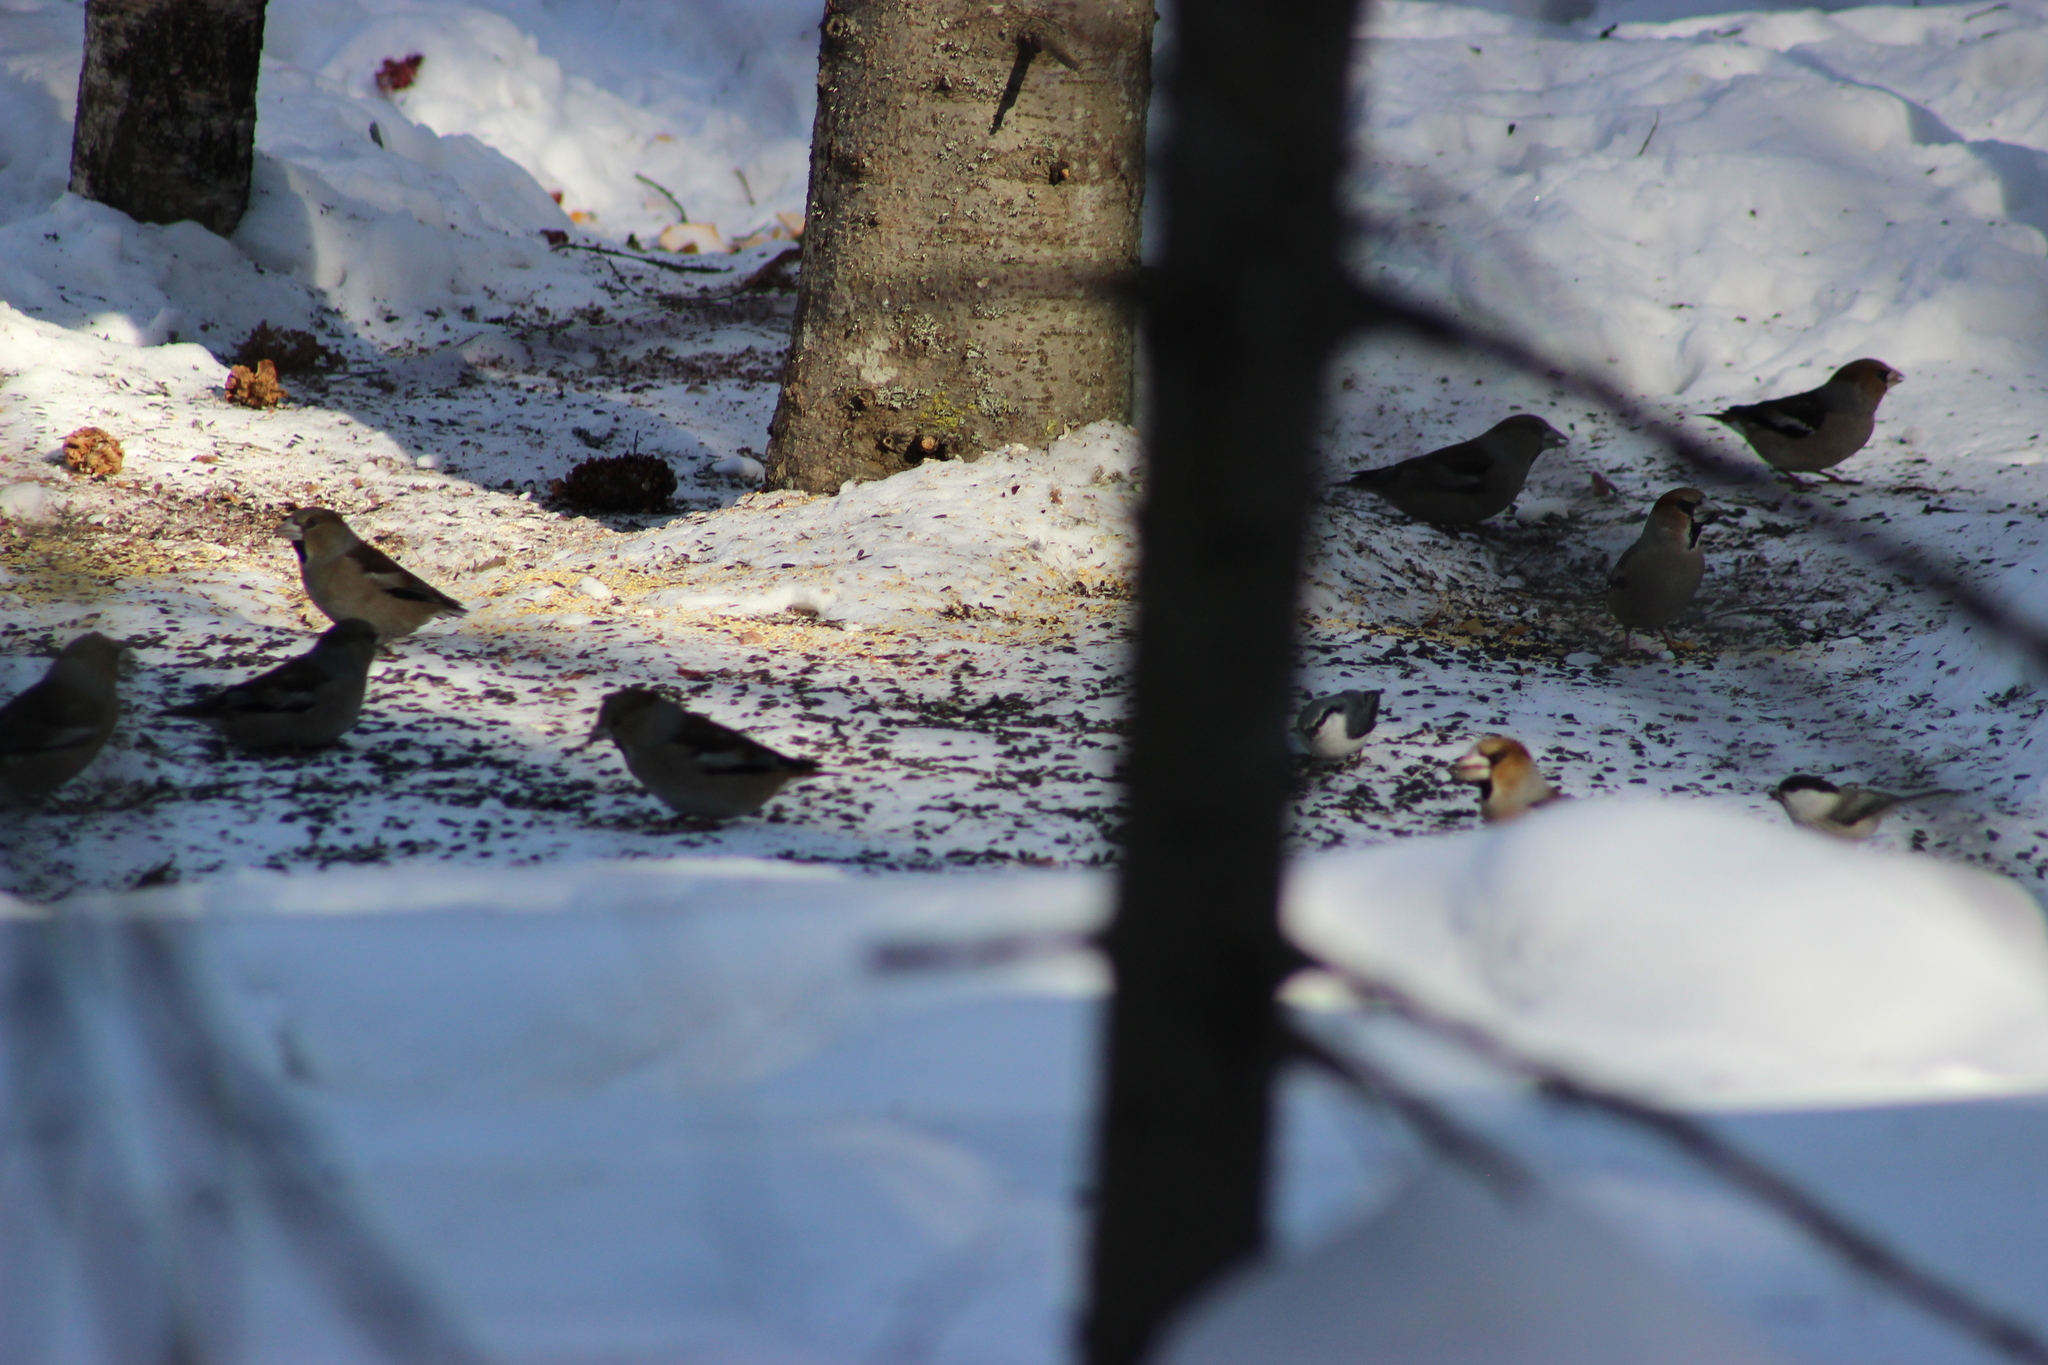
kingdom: Animalia
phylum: Chordata
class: Aves
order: Passeriformes
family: Fringillidae
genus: Coccothraustes
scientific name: Coccothraustes coccothraustes
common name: Hawfinch
